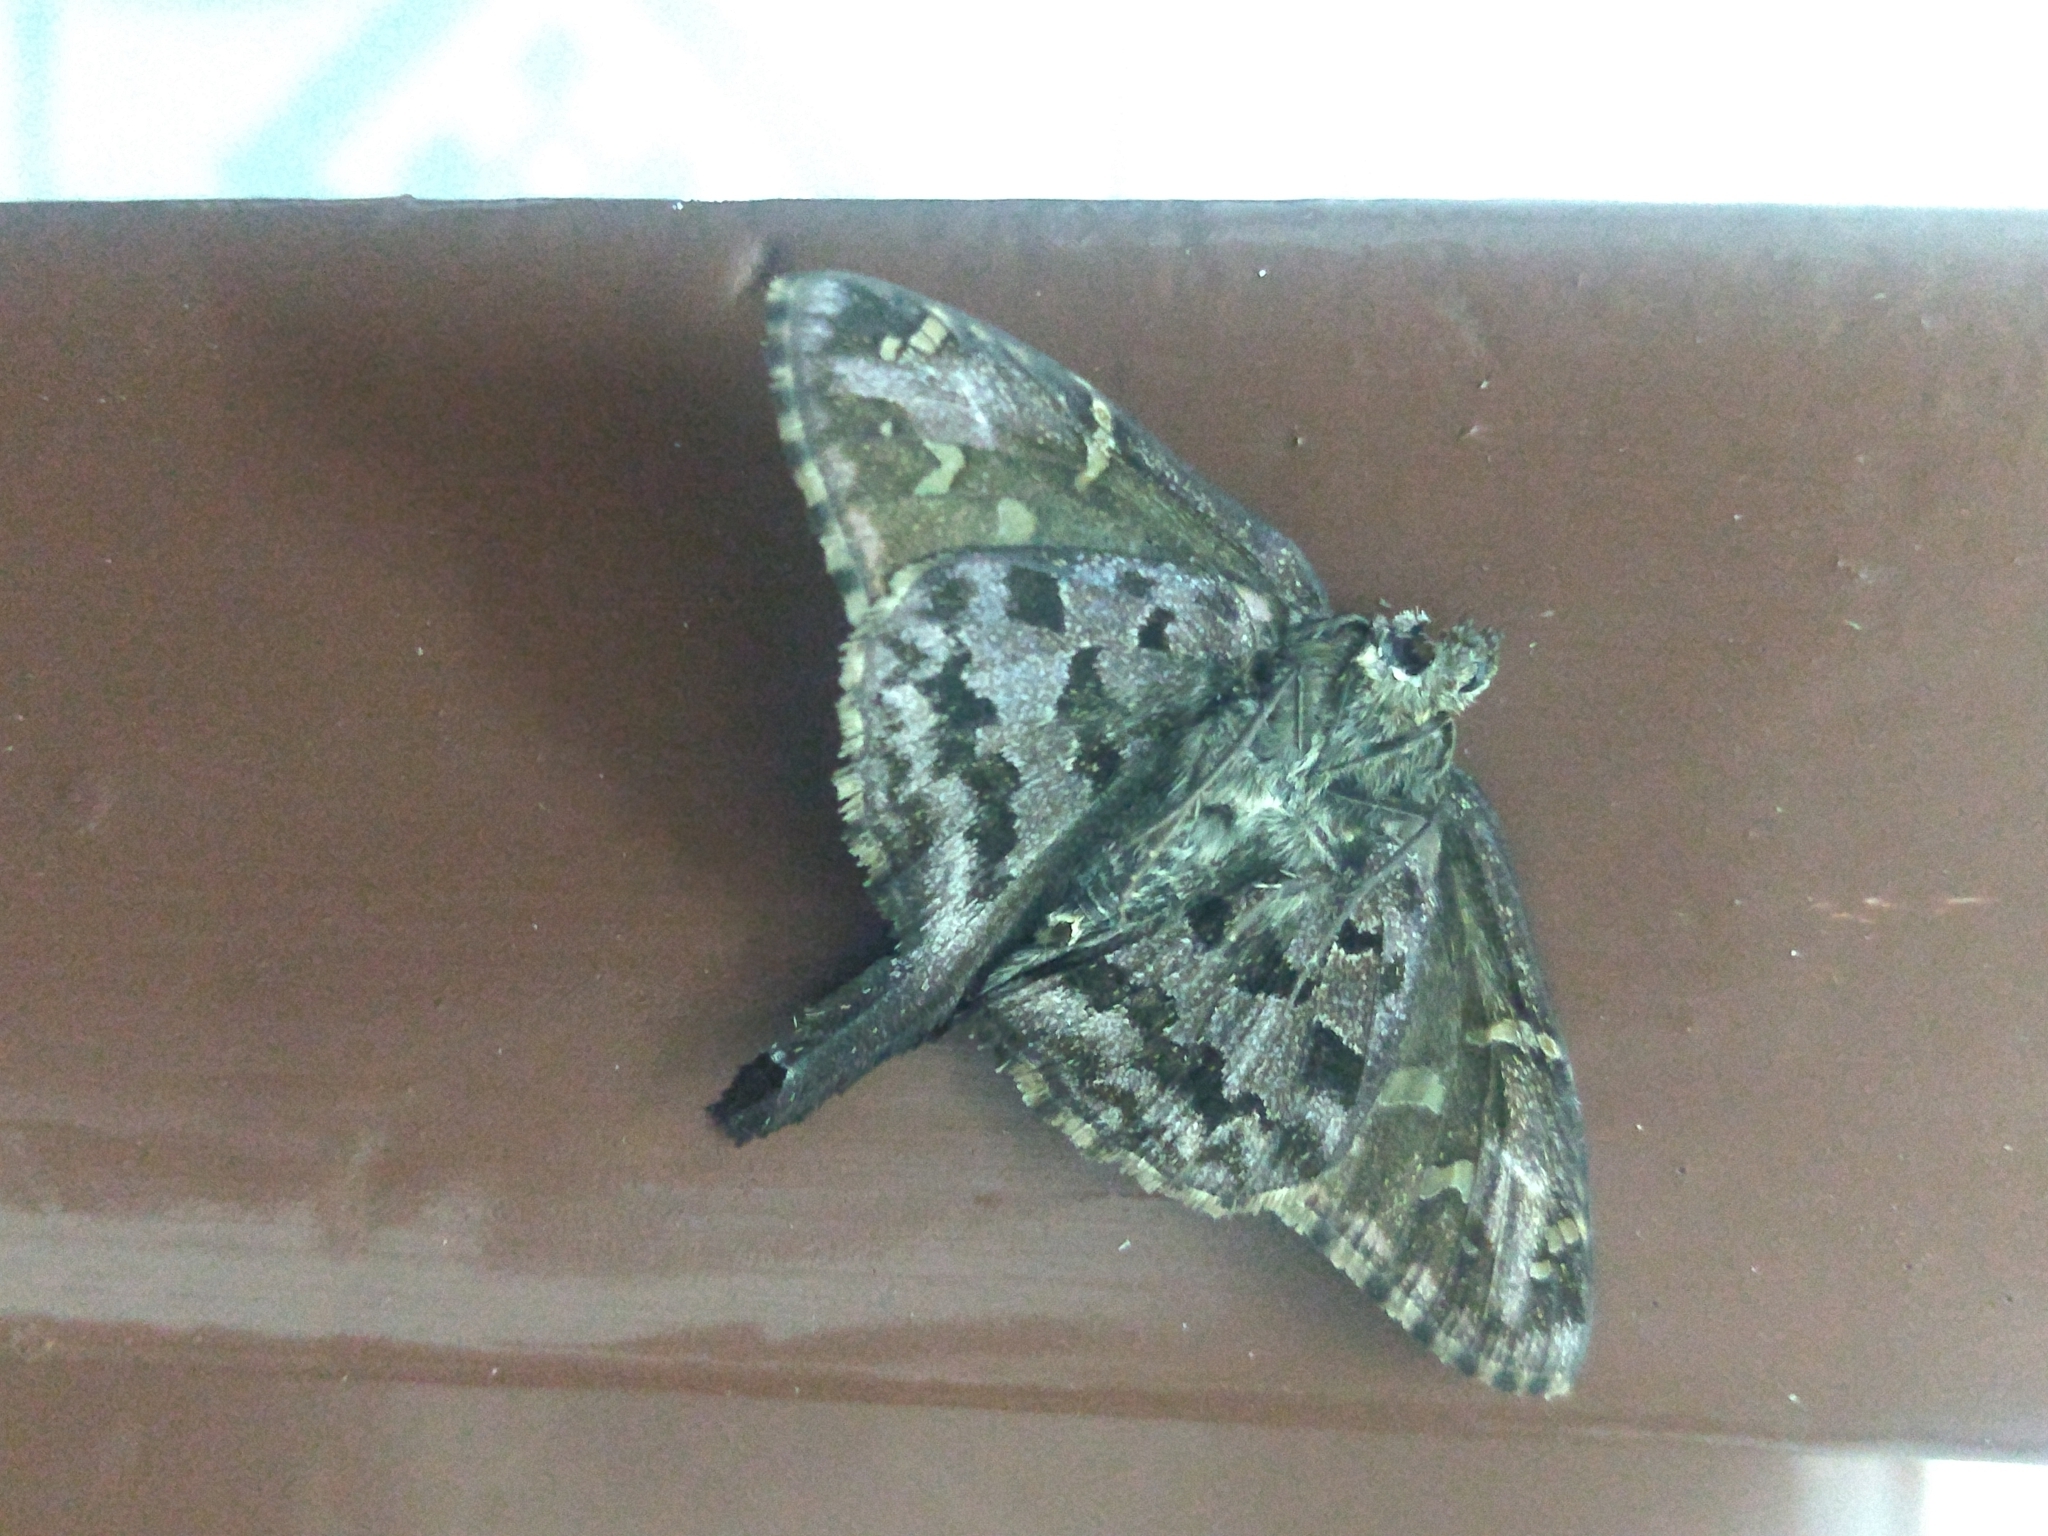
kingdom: Animalia
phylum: Arthropoda
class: Insecta
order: Lepidoptera
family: Hesperiidae
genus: Thorybes
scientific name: Thorybes
